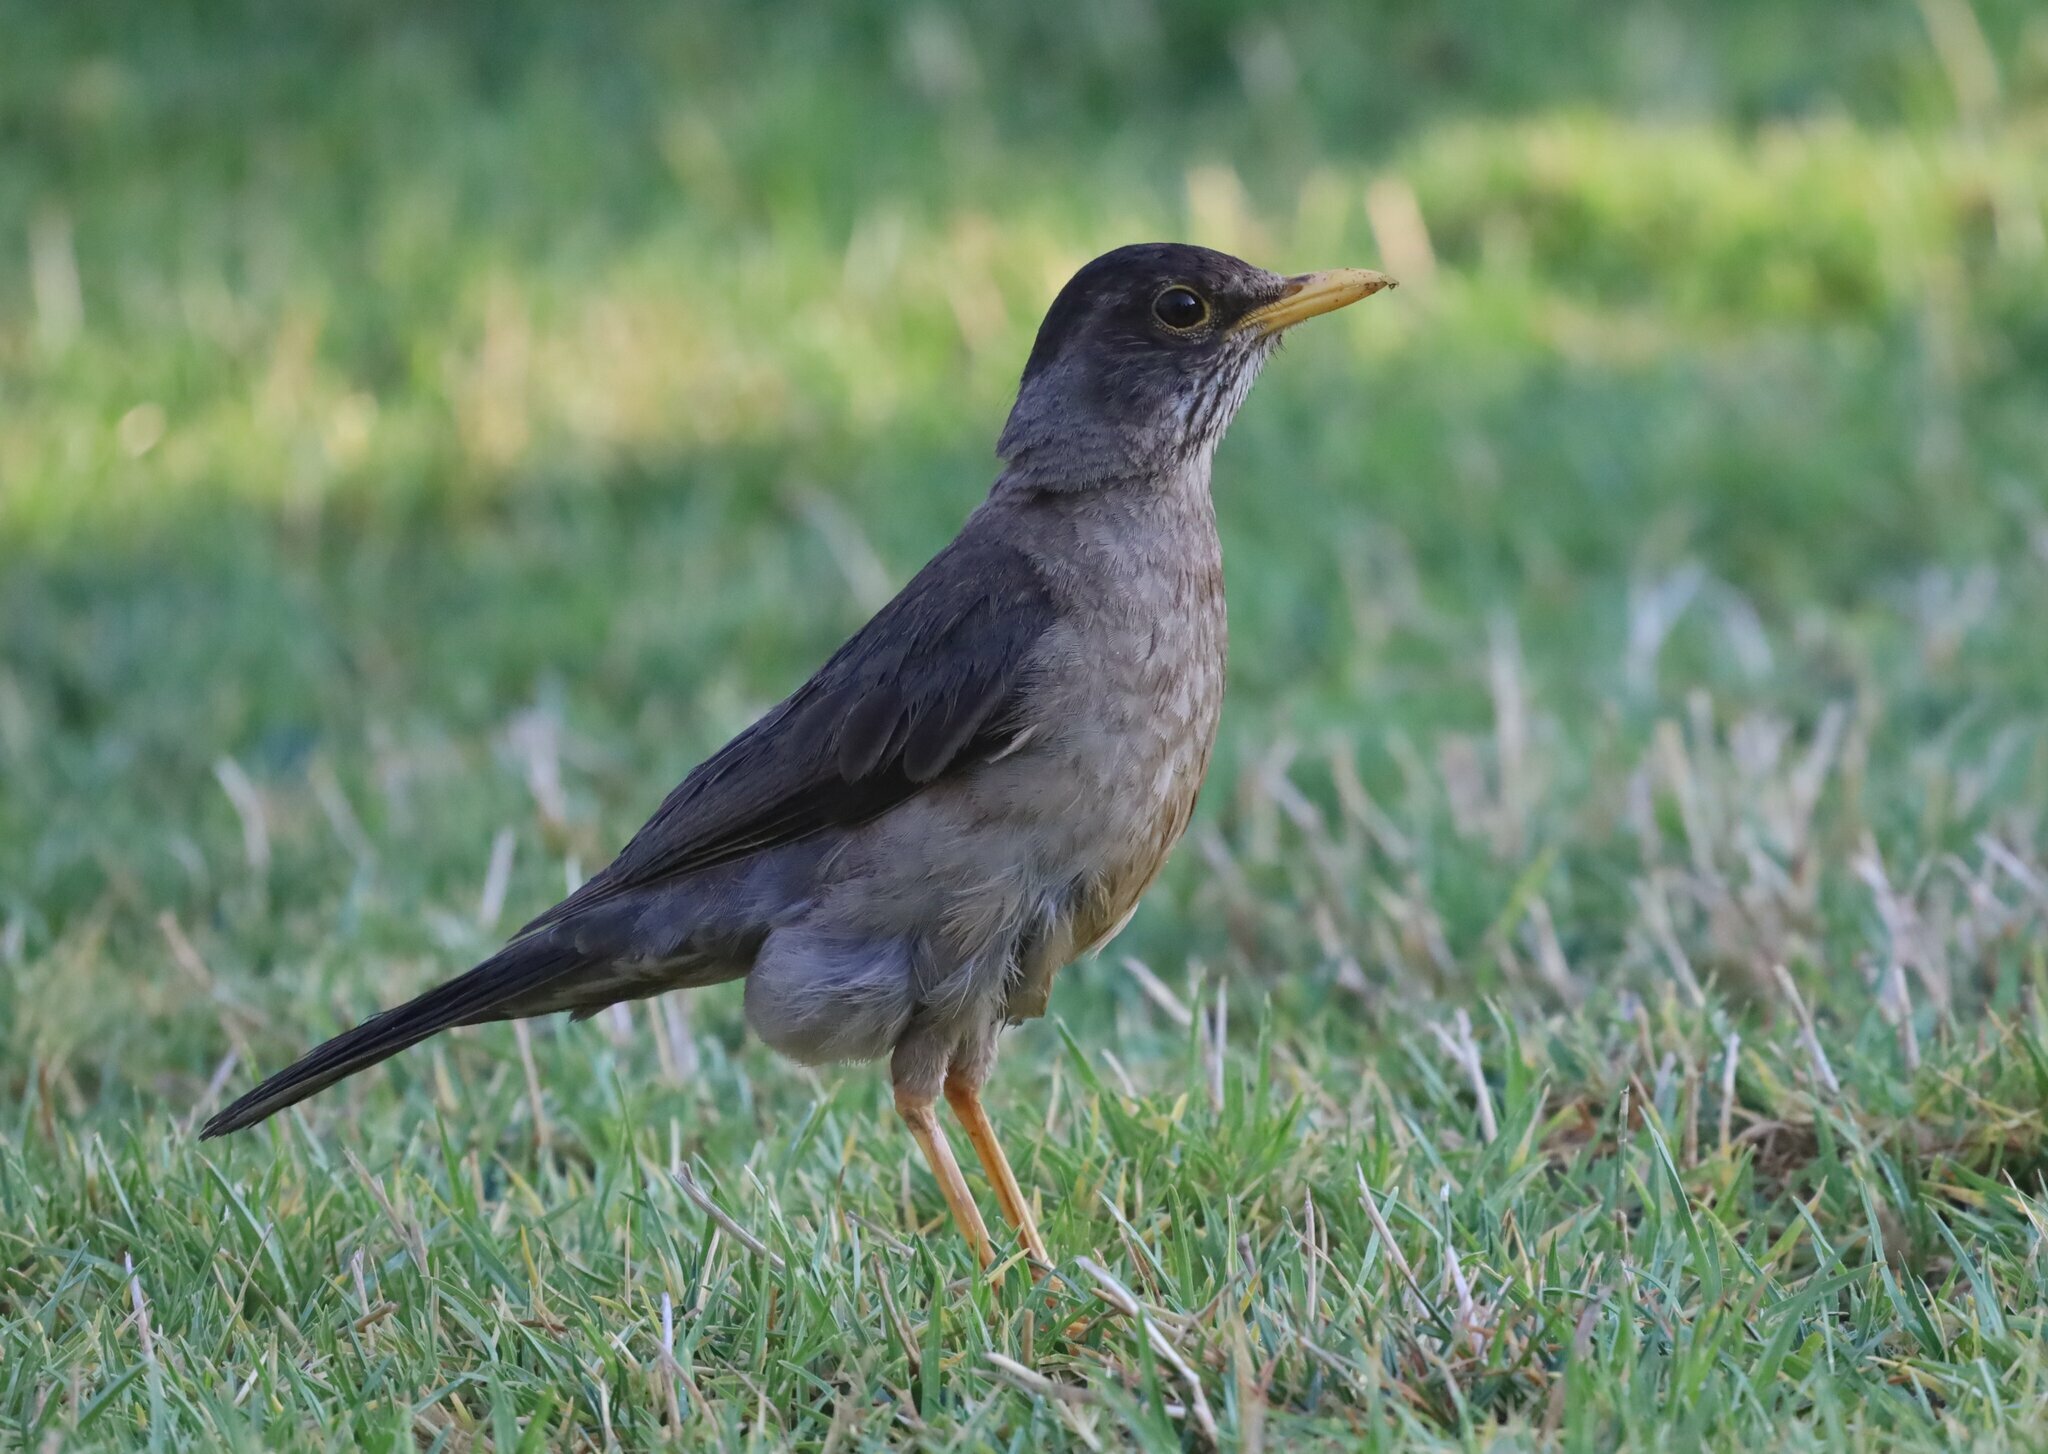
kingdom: Animalia
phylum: Chordata
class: Aves
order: Passeriformes
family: Turdidae
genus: Turdus
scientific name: Turdus falcklandii
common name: Austral thrush
